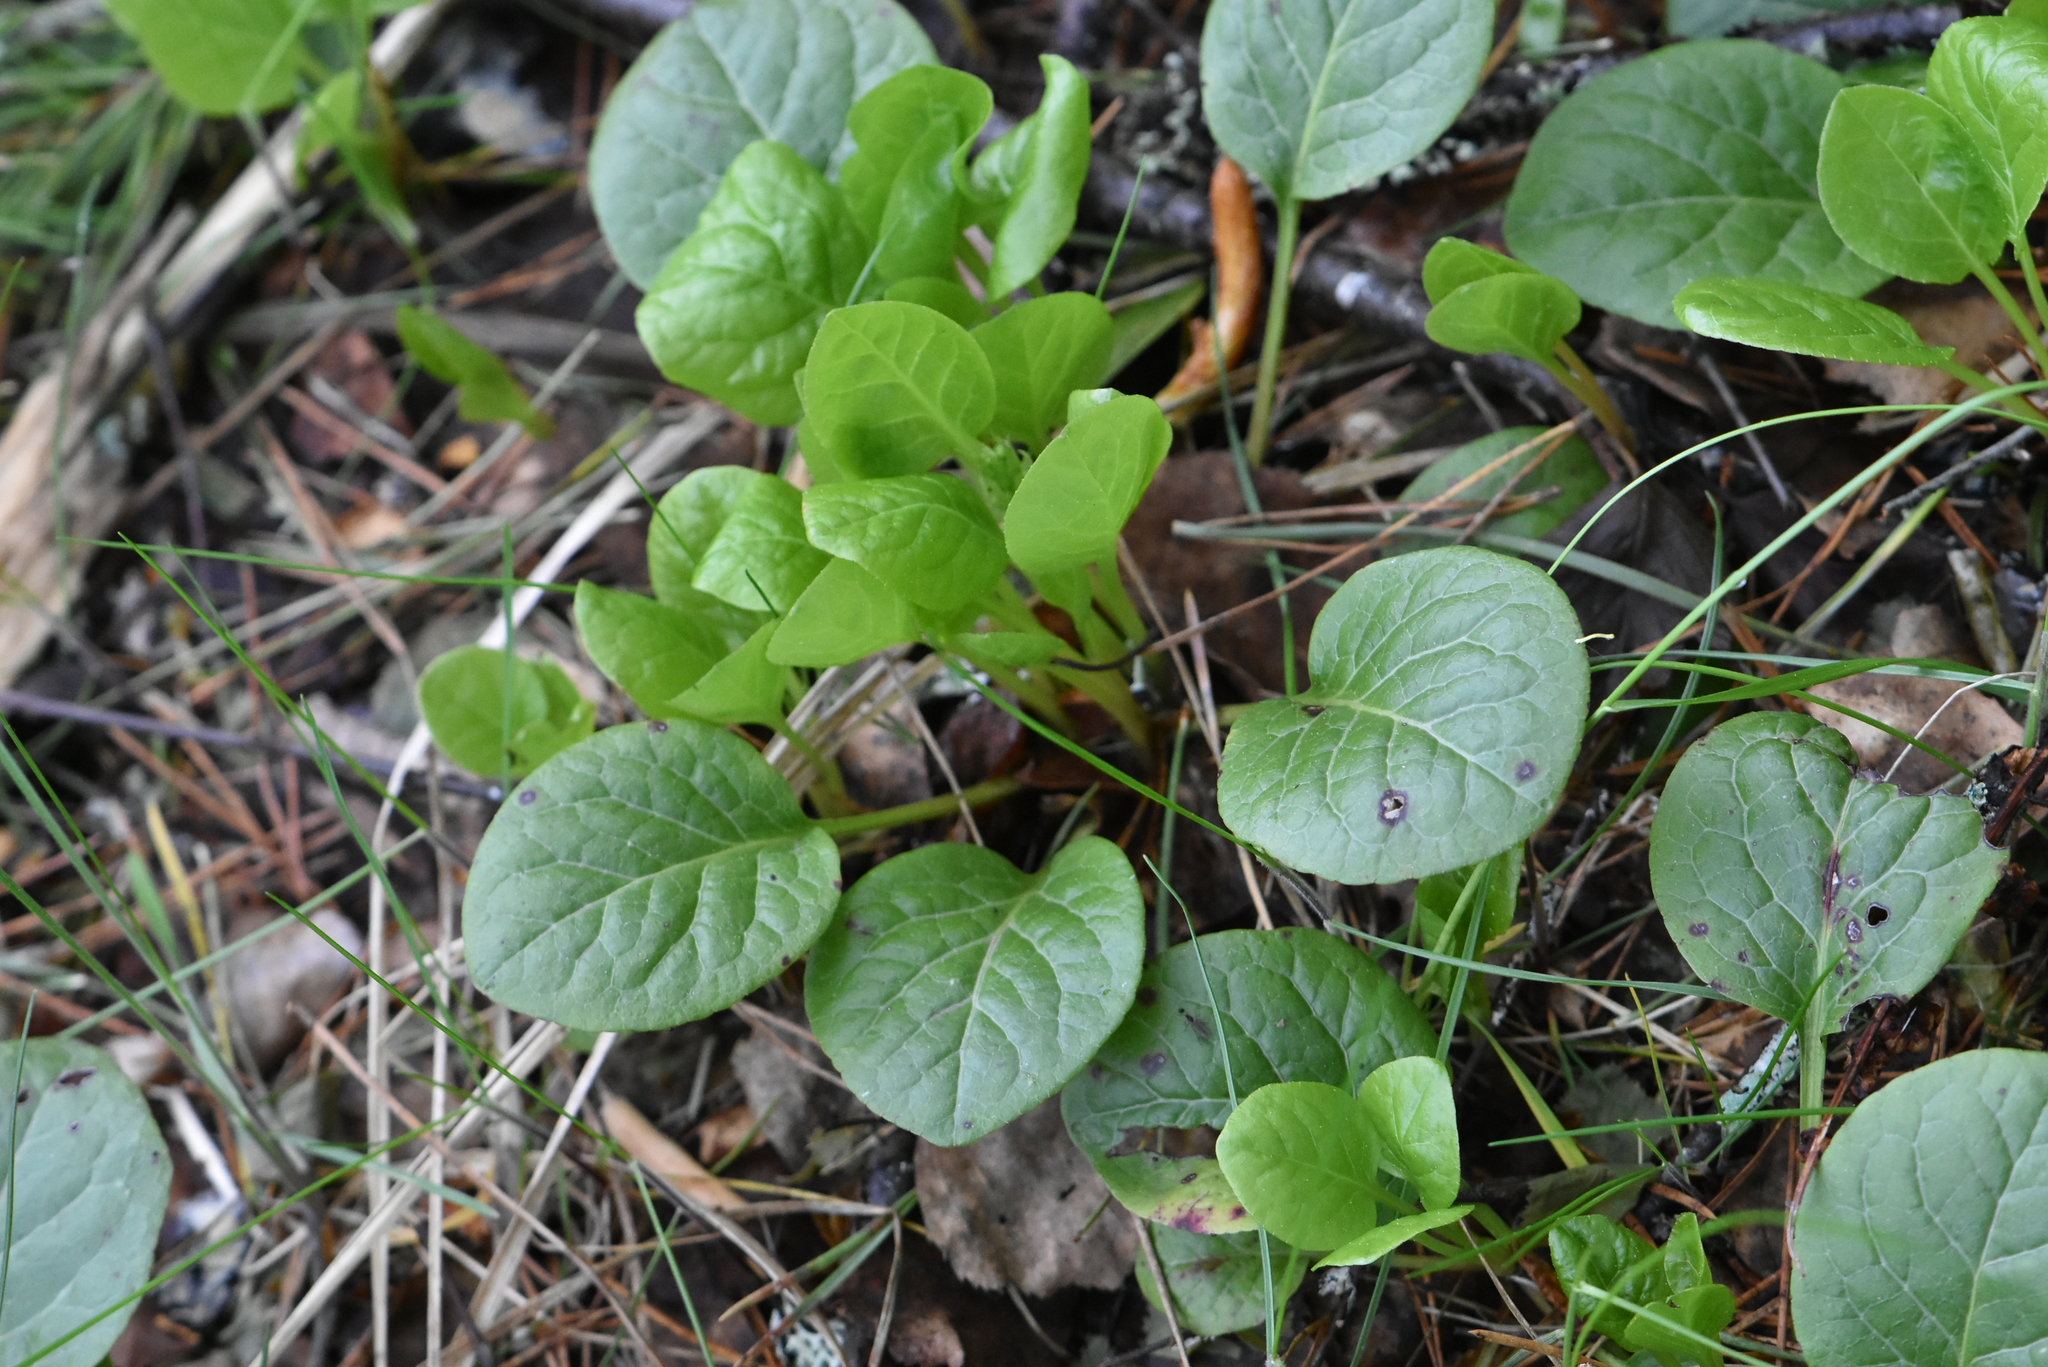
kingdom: Plantae
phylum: Tracheophyta
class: Magnoliopsida
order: Ericales
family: Ericaceae
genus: Pyrola
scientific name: Pyrola rotundifolia
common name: Round-leaved wintergreen
